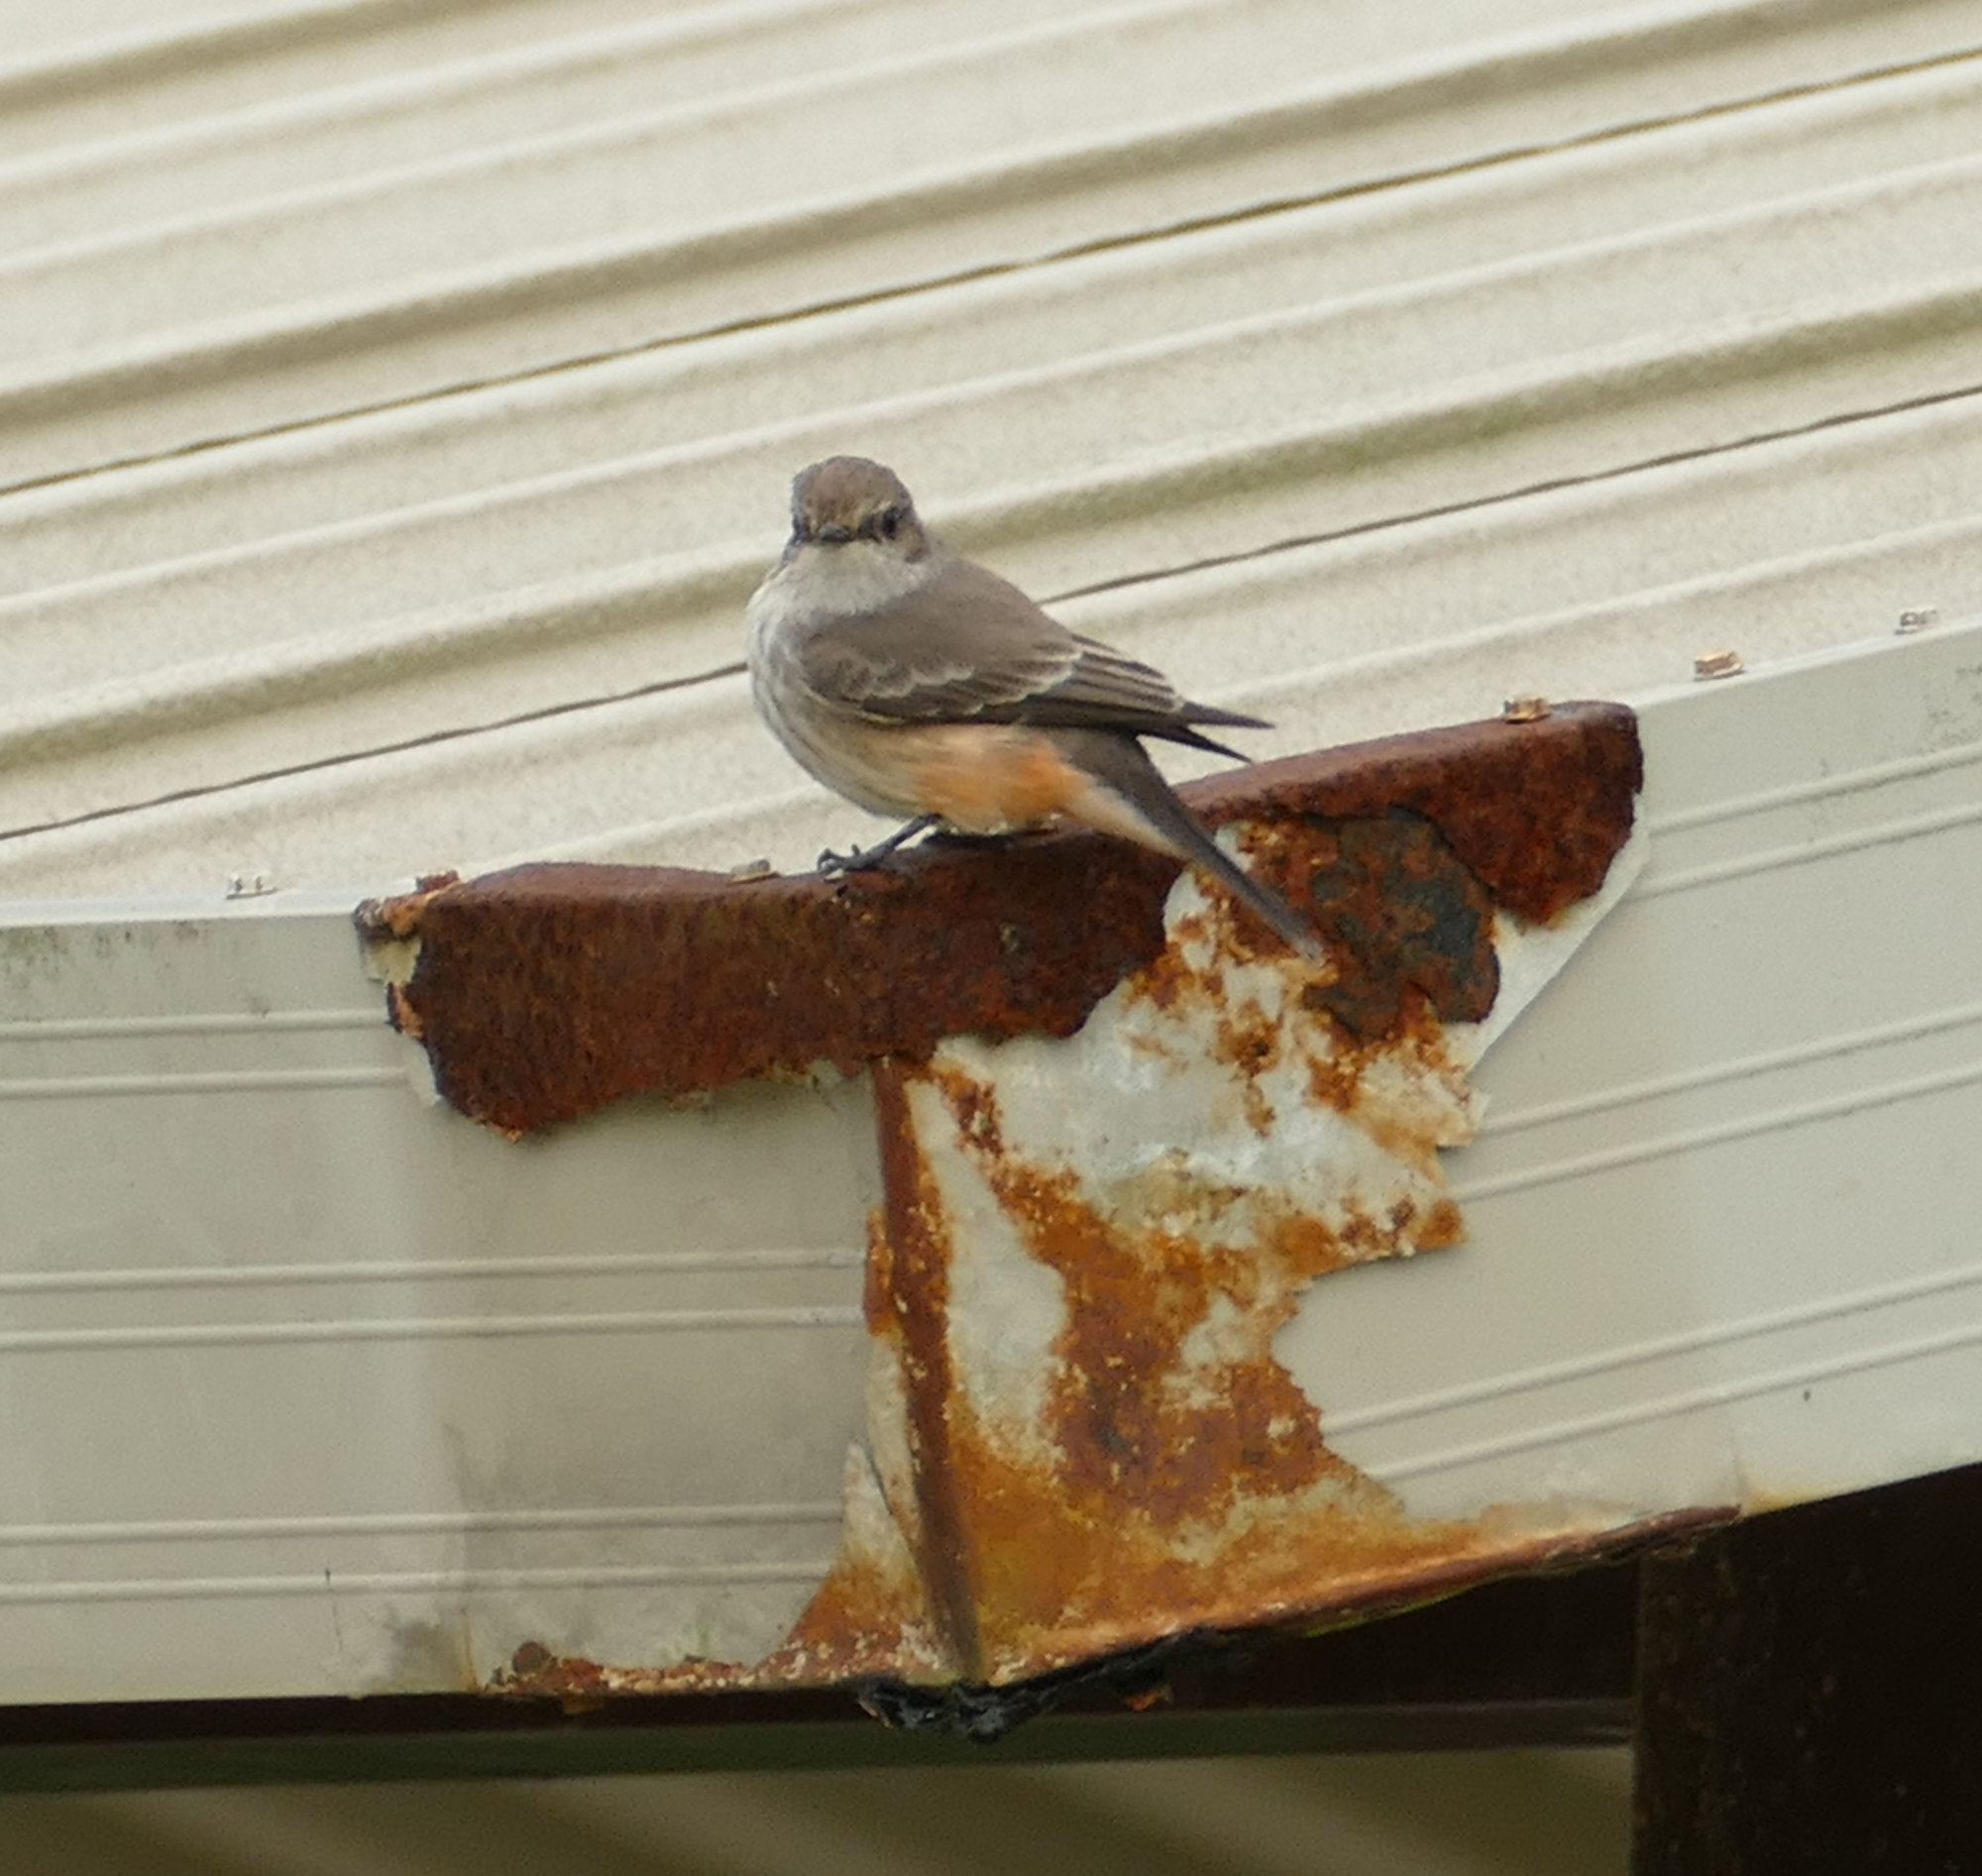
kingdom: Animalia
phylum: Chordata
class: Aves
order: Passeriformes
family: Tyrannidae
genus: Pyrocephalus
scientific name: Pyrocephalus rubinus
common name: Vermilion flycatcher
